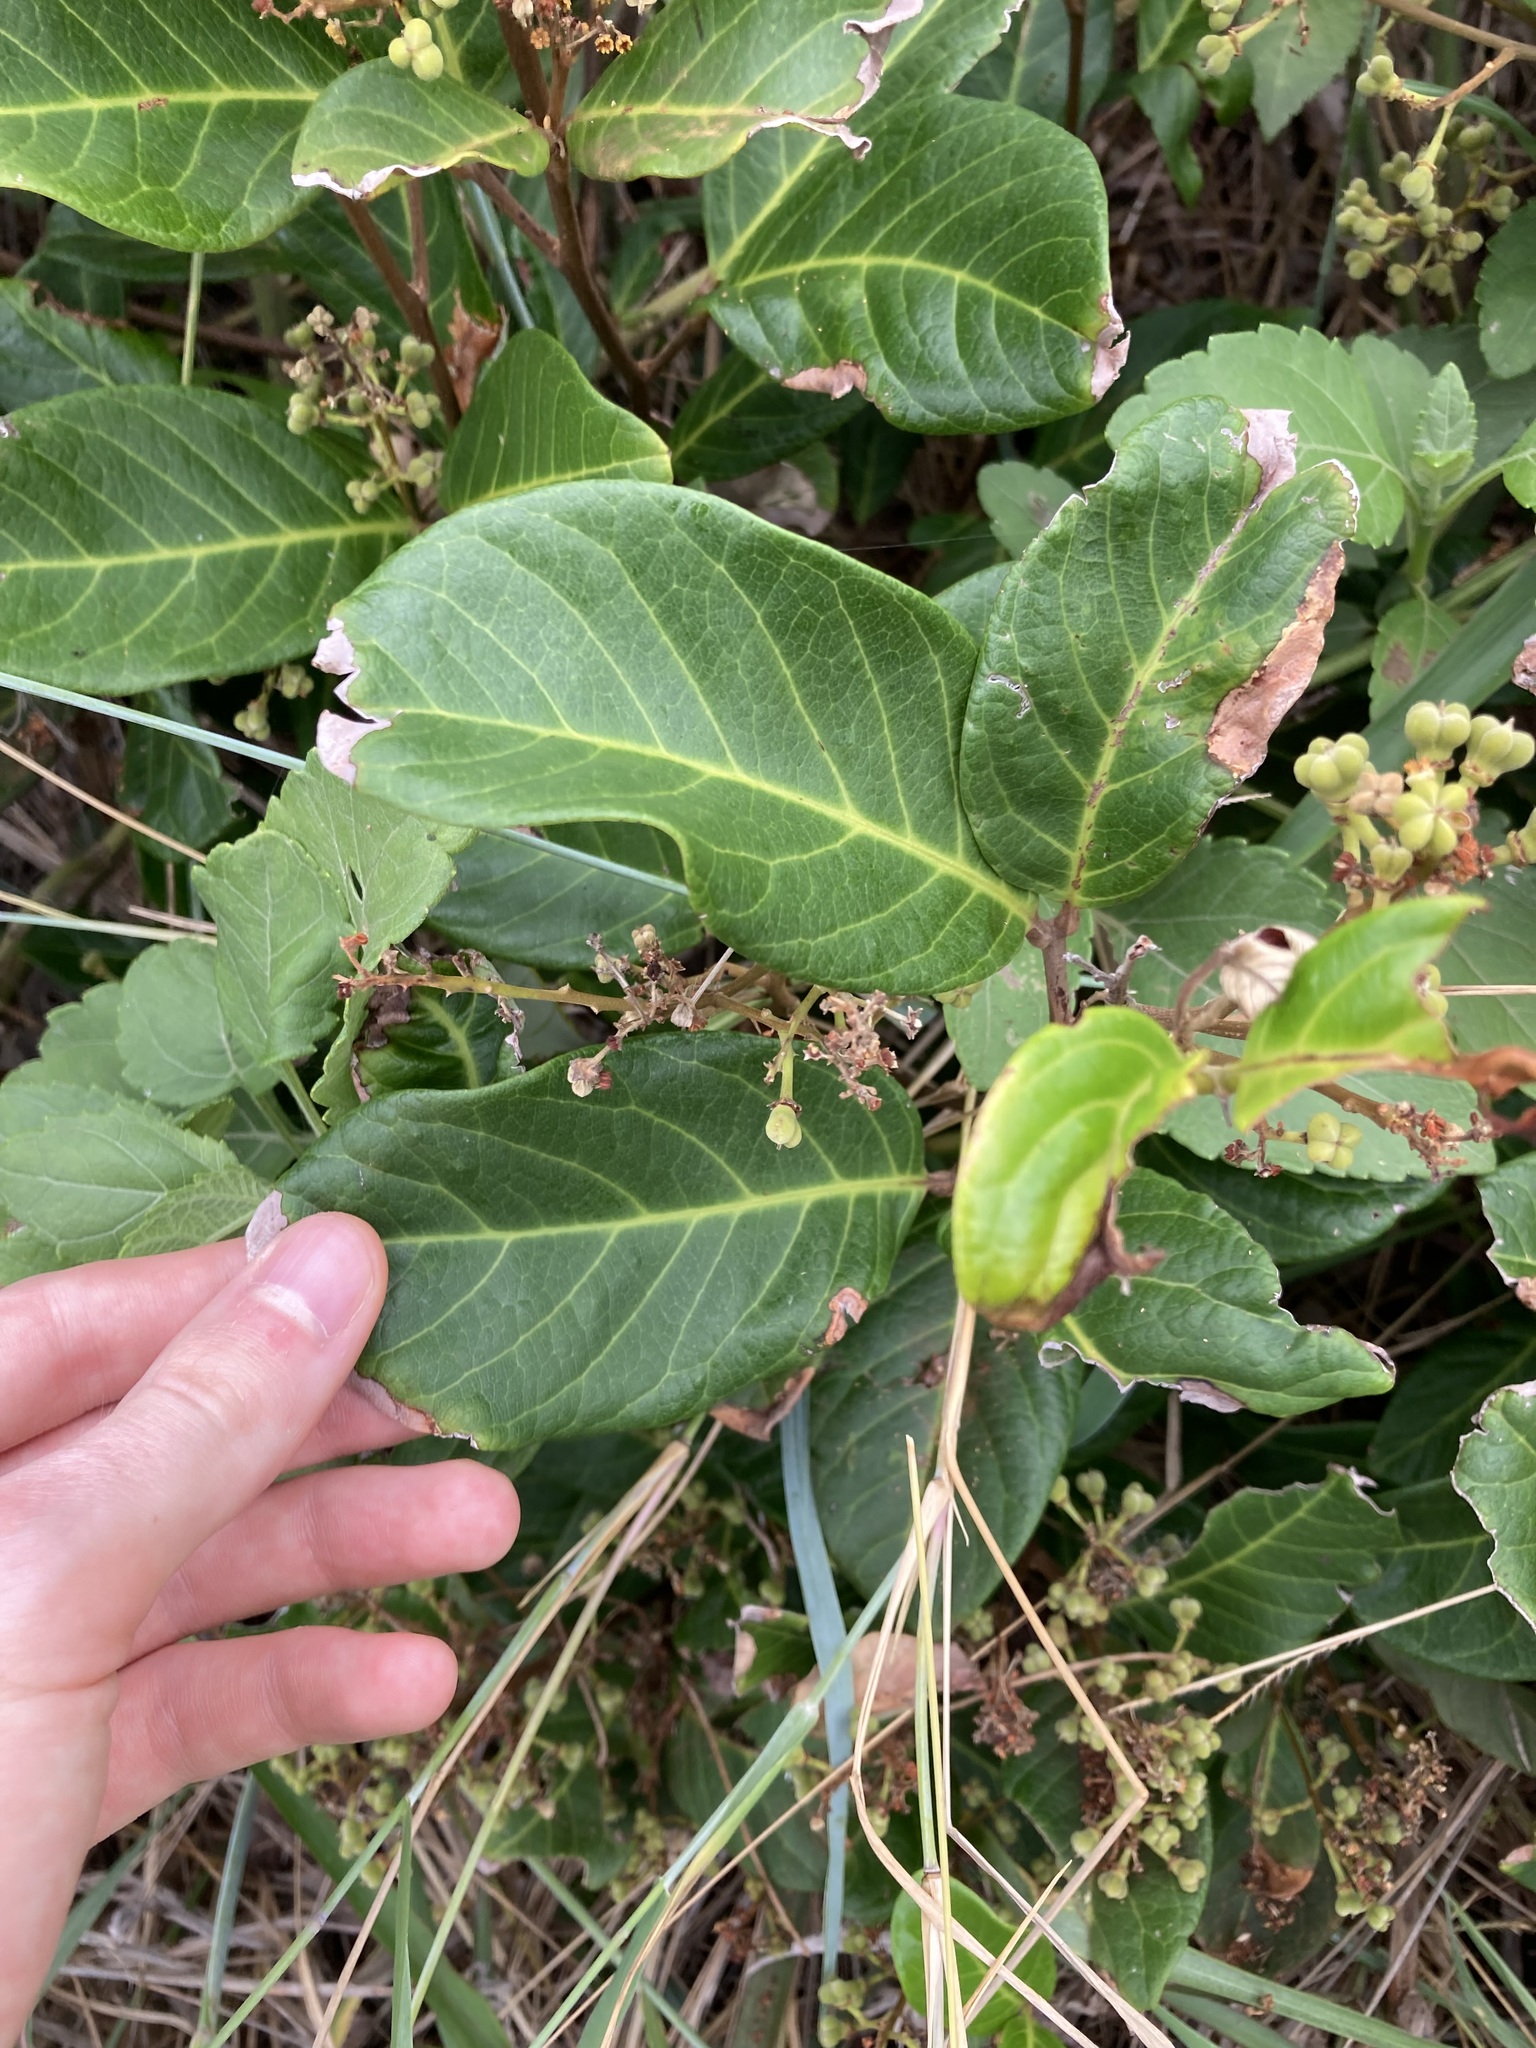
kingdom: Plantae
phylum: Tracheophyta
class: Magnoliopsida
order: Sapindales
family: Sapindaceae
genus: Alectryon
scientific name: Alectryon coriaceus
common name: Beach alectryon
